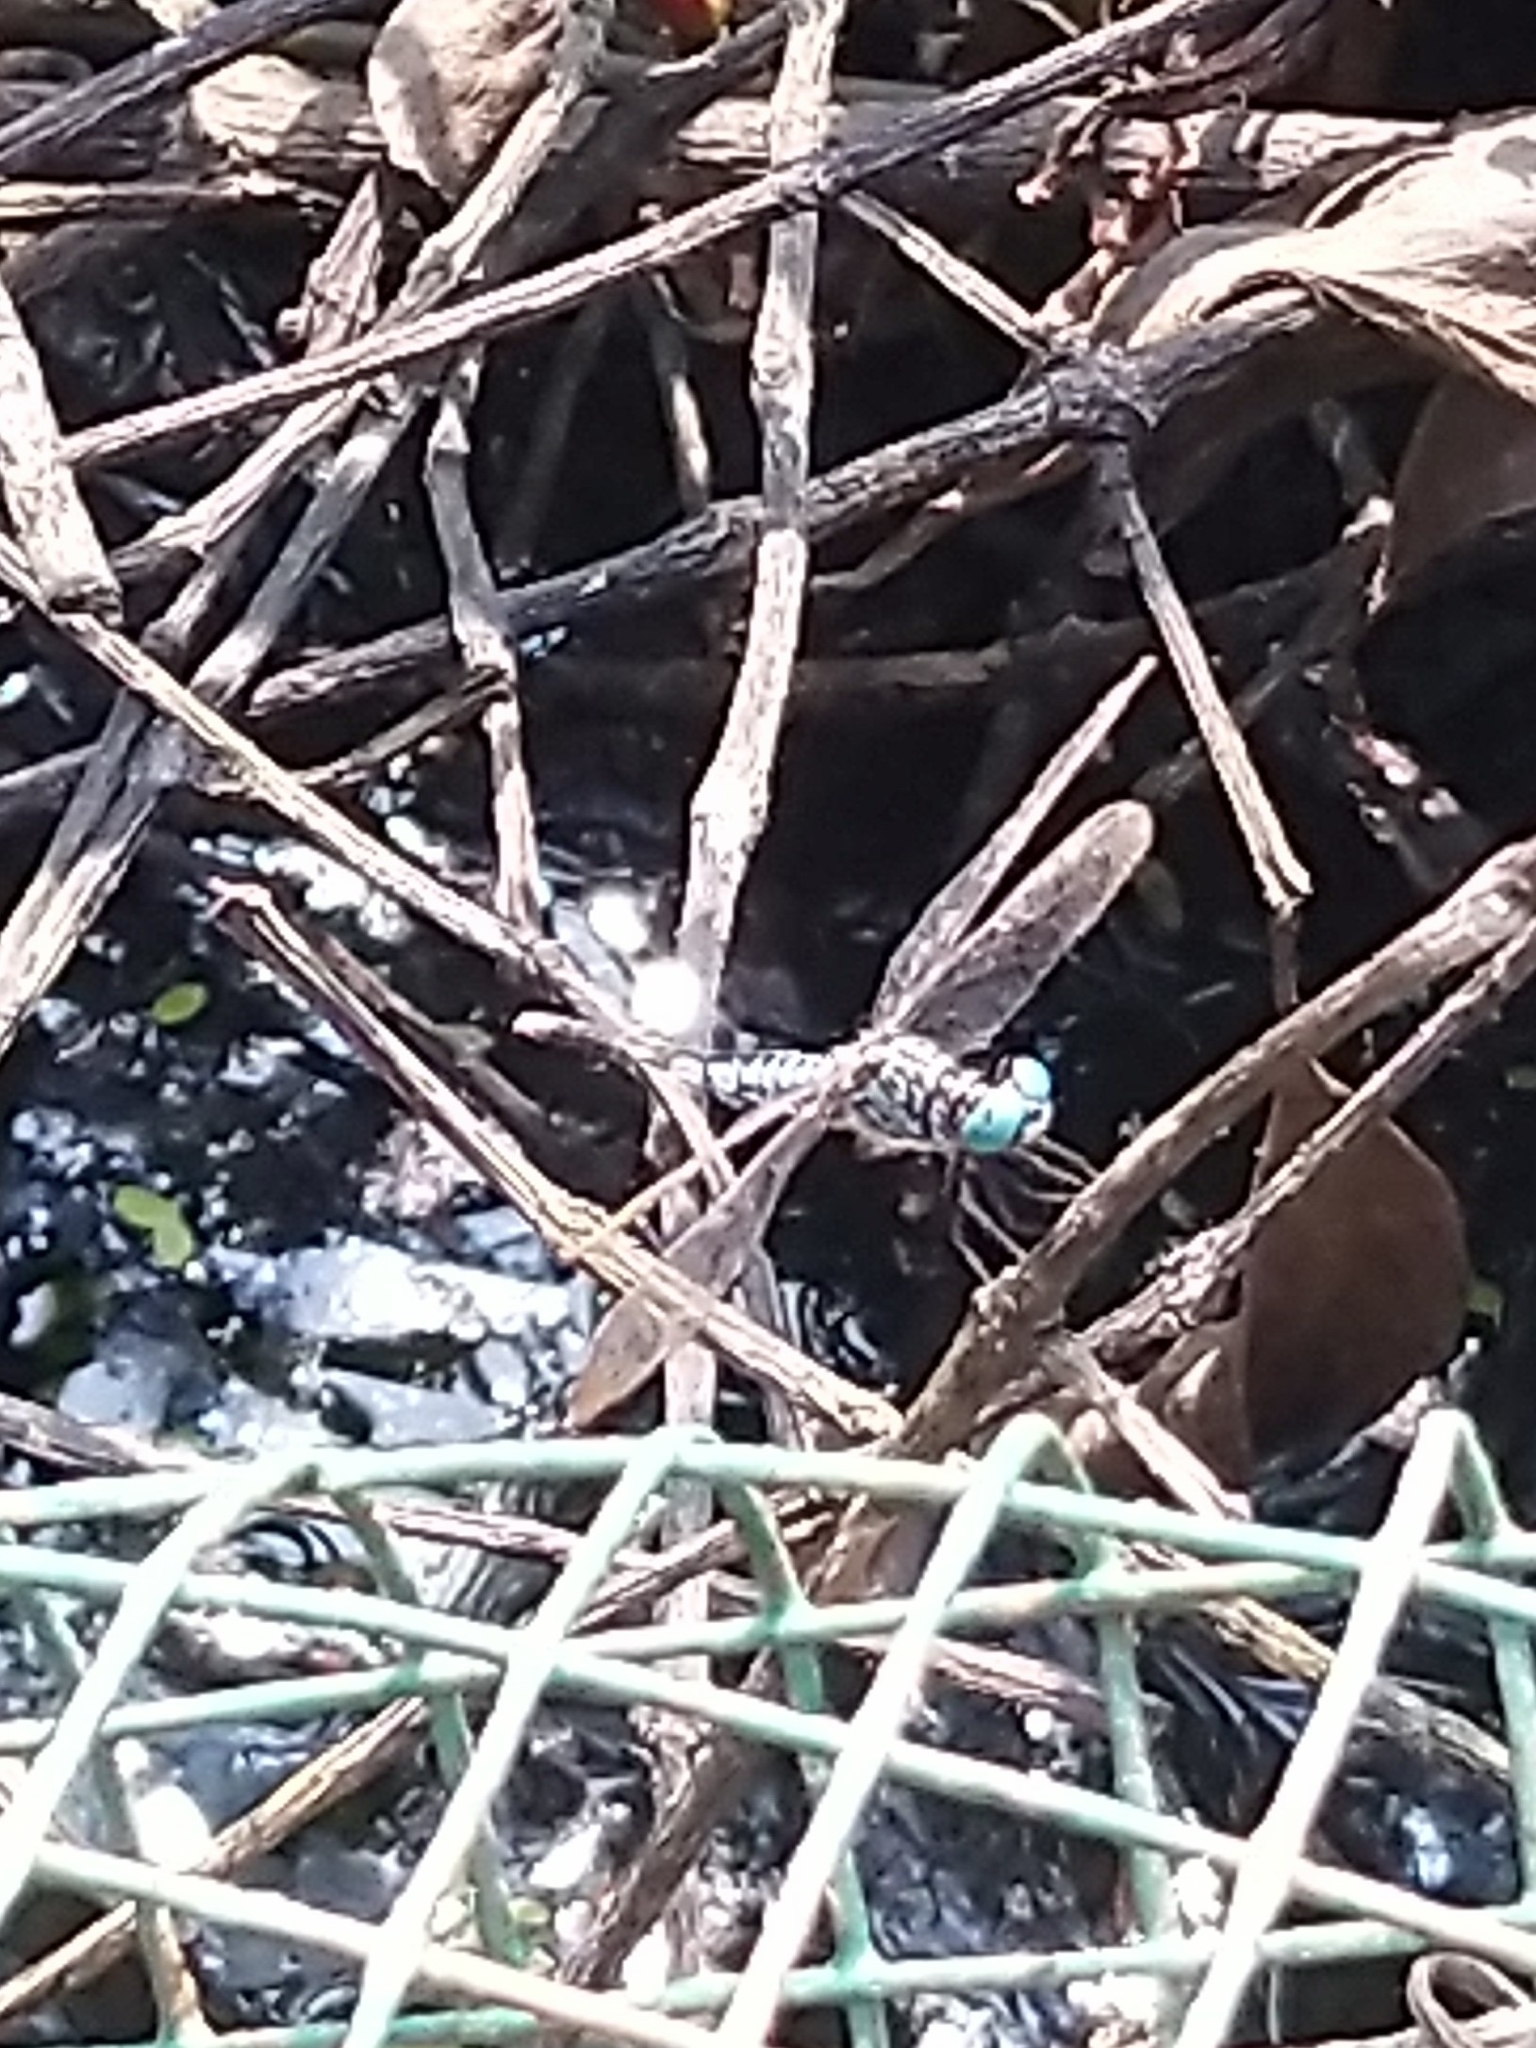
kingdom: Animalia
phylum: Arthropoda
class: Insecta
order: Odonata
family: Libellulidae
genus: Acisoma
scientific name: Acisoma panorpoides
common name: Asian pintail
